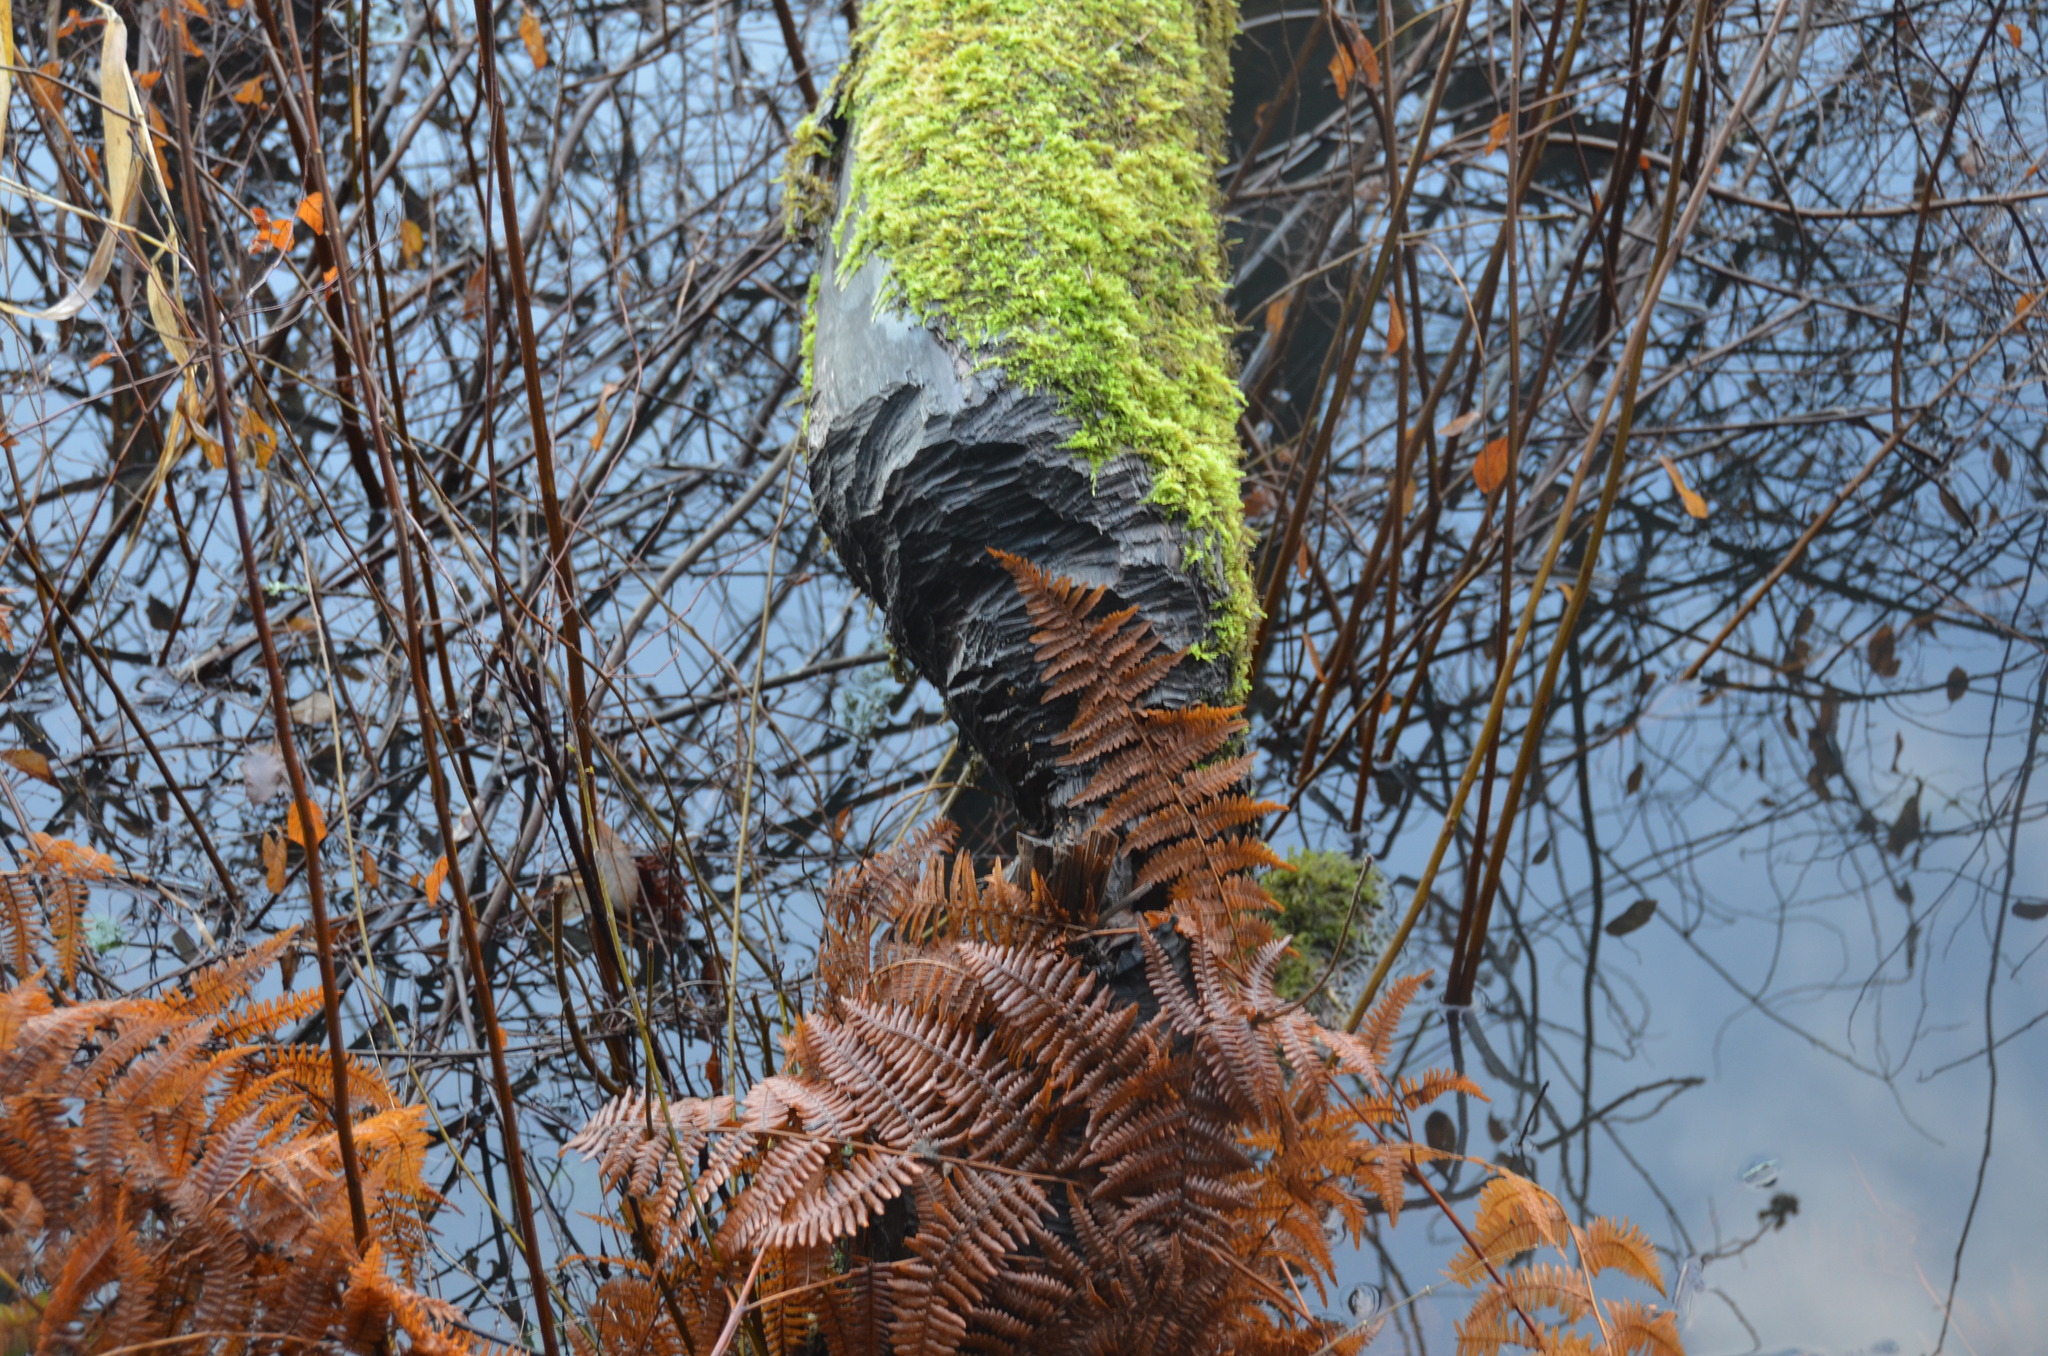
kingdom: Animalia
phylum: Chordata
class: Mammalia
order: Rodentia
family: Castoridae
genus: Castor
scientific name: Castor canadensis
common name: American beaver
